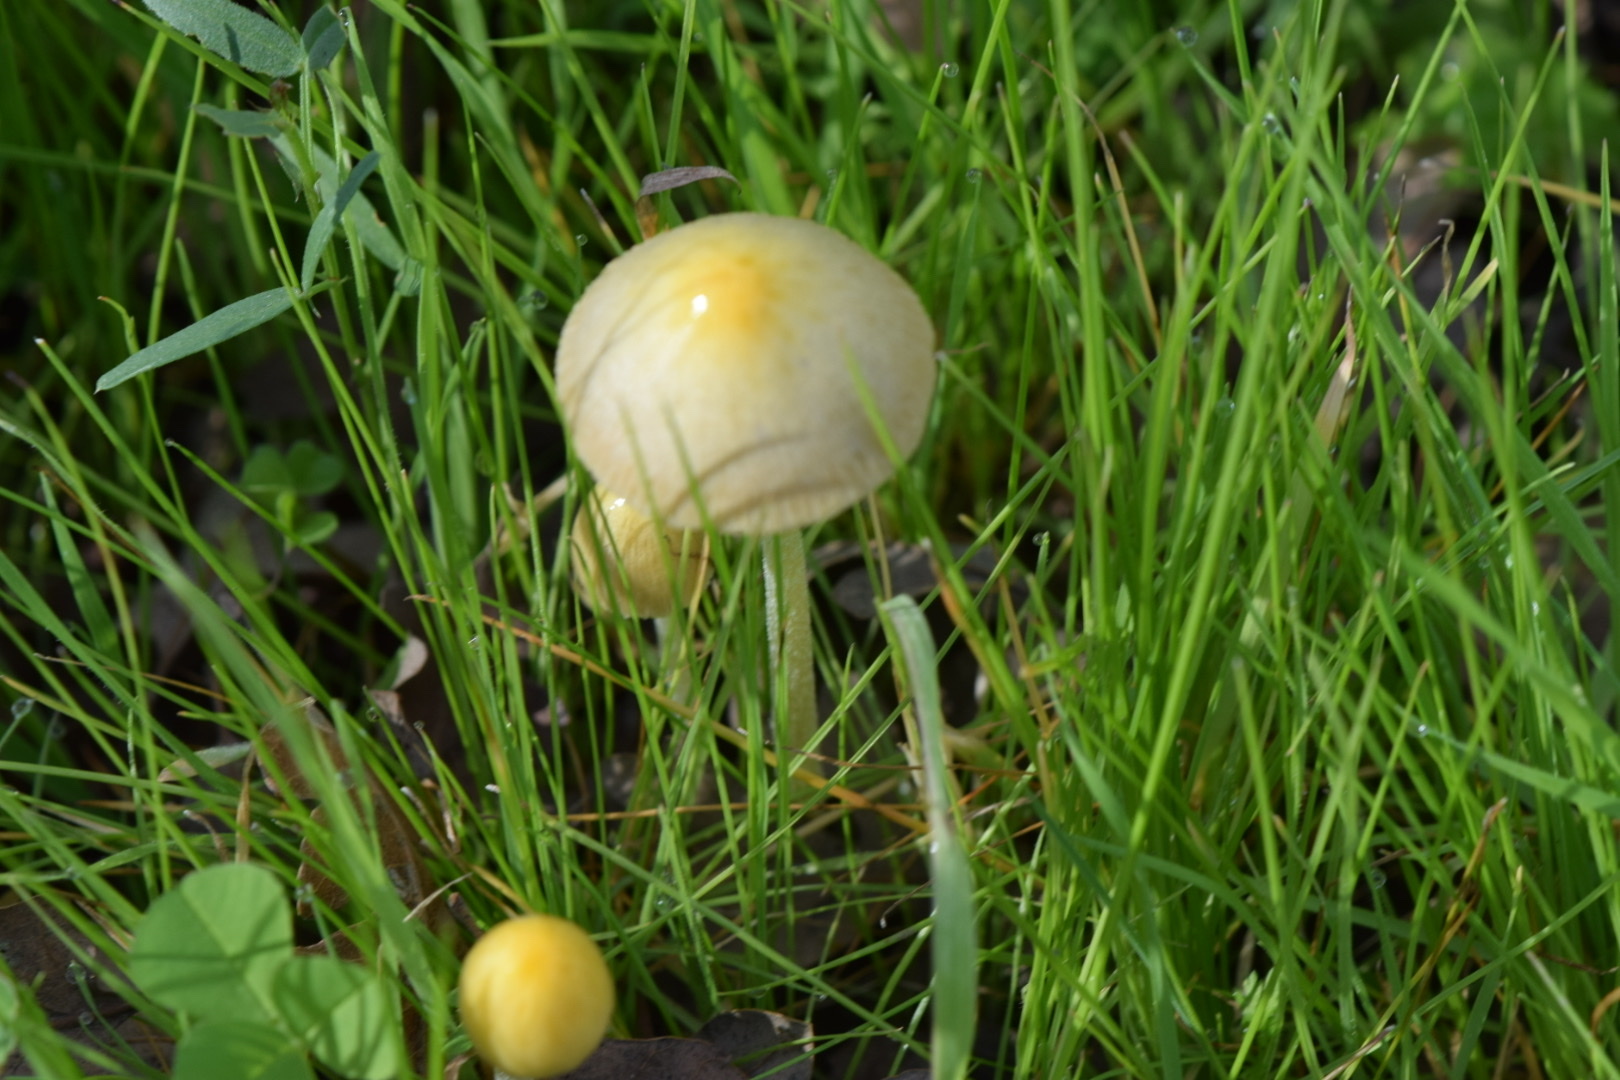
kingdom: Fungi
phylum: Basidiomycota
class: Agaricomycetes
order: Agaricales
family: Bolbitiaceae
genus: Bolbitius
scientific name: Bolbitius titubans
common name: Yellow fieldcap
